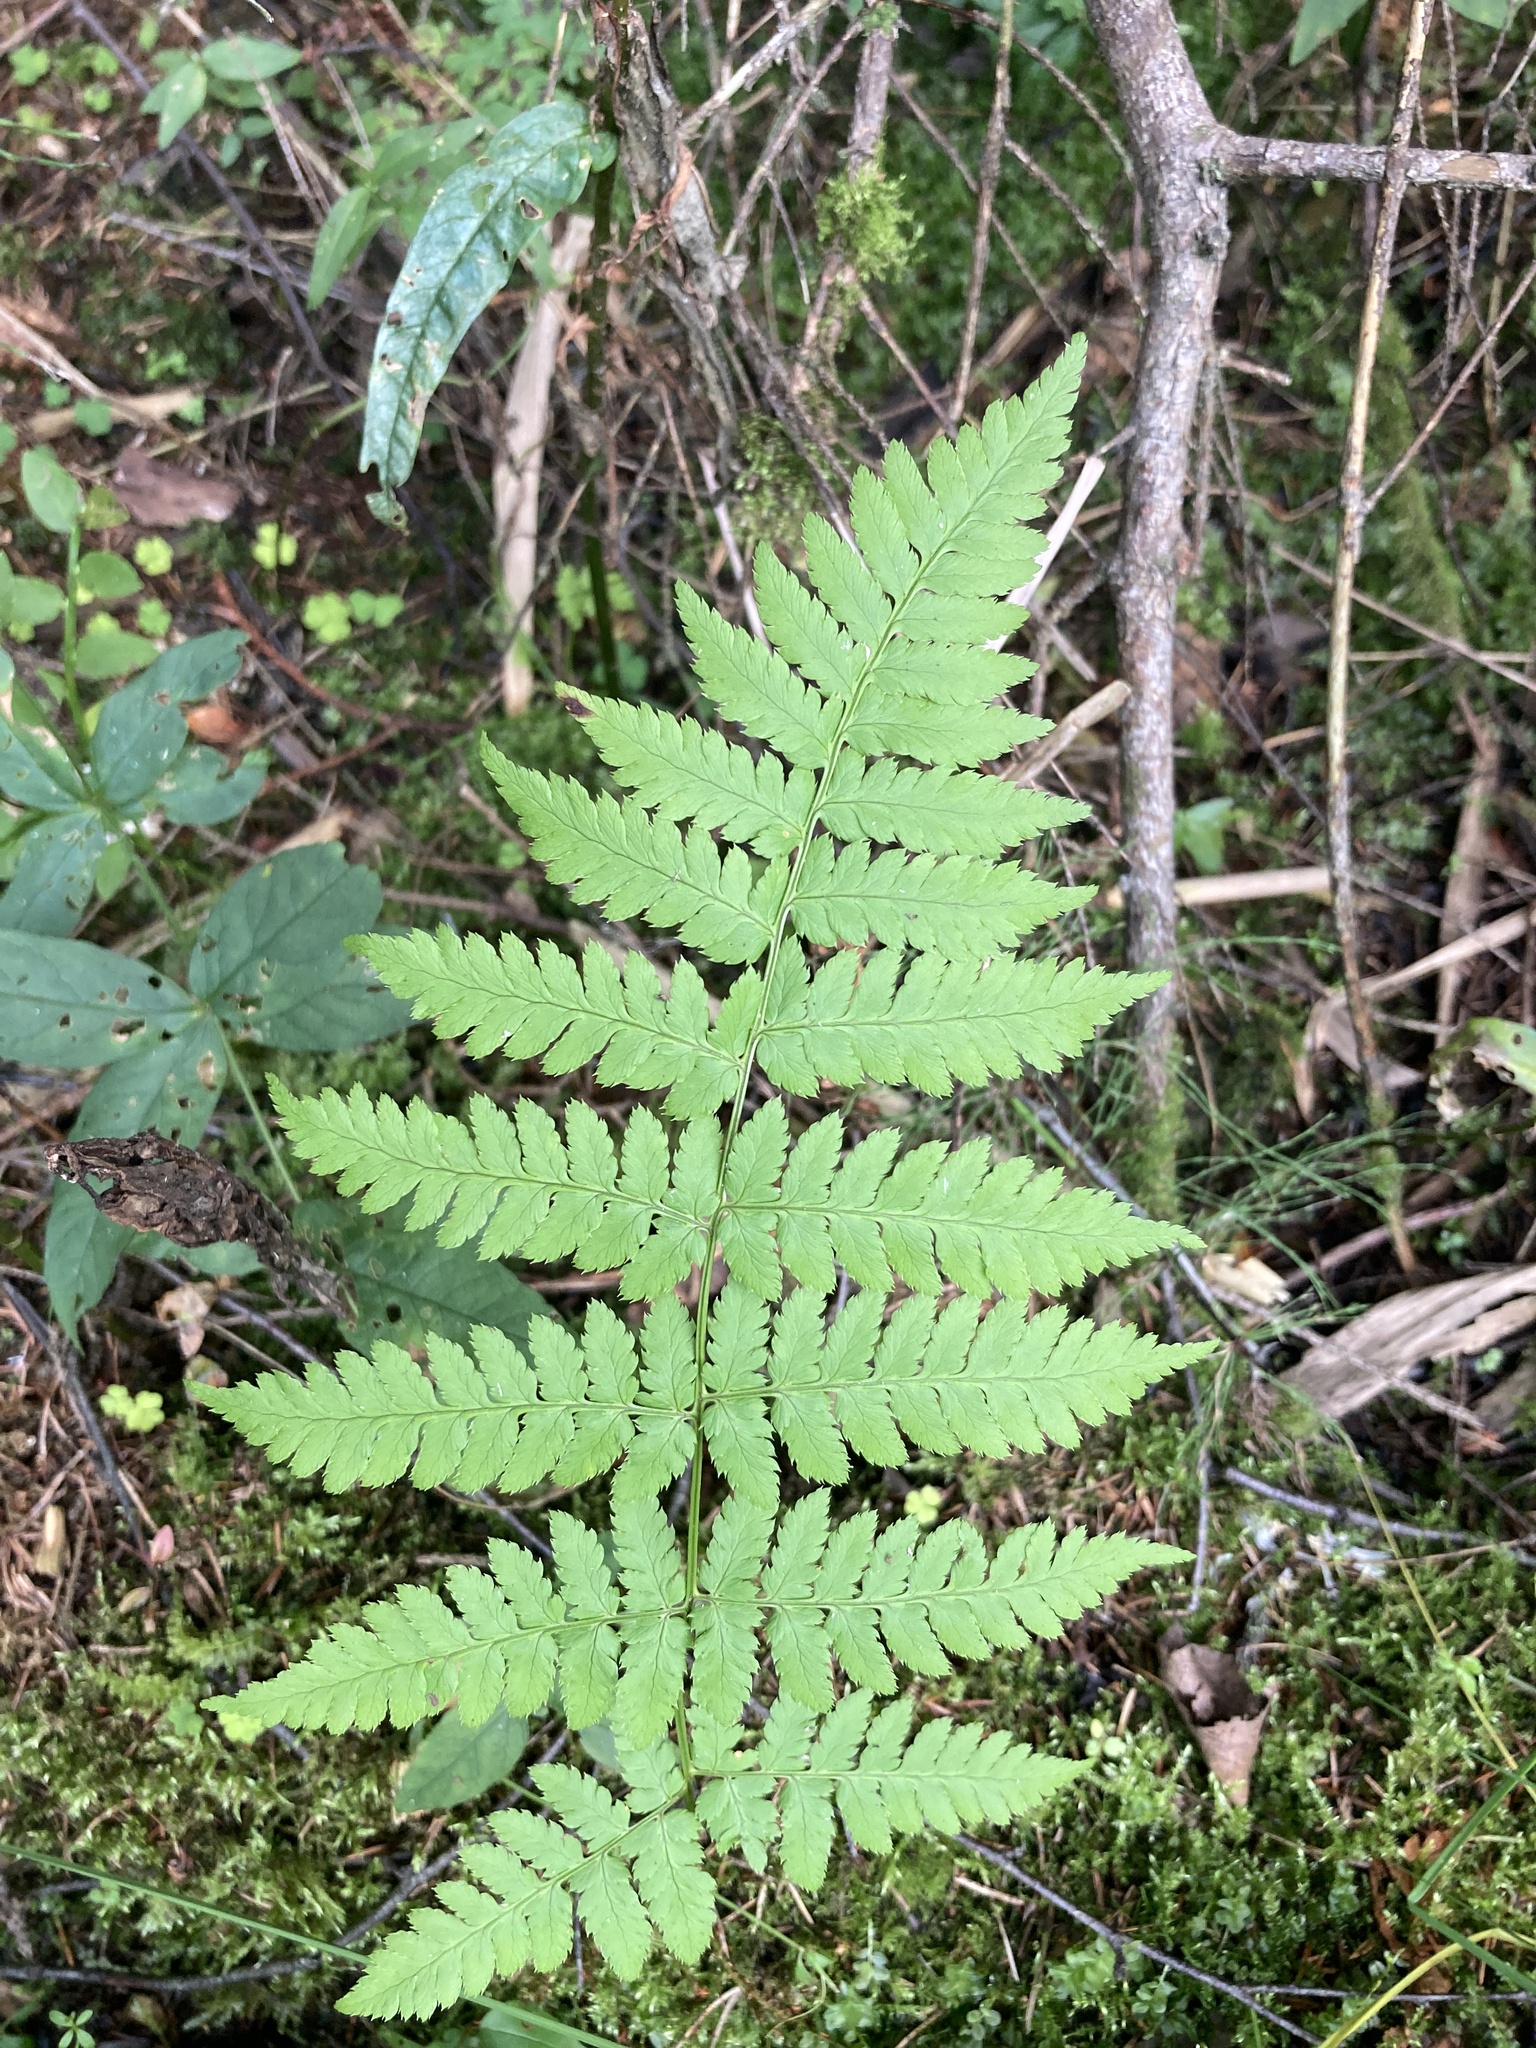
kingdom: Plantae
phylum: Tracheophyta
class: Polypodiopsida
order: Polypodiales
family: Dryopteridaceae
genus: Dryopteris
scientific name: Dryopteris carthusiana
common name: Narrow buckler-fern
